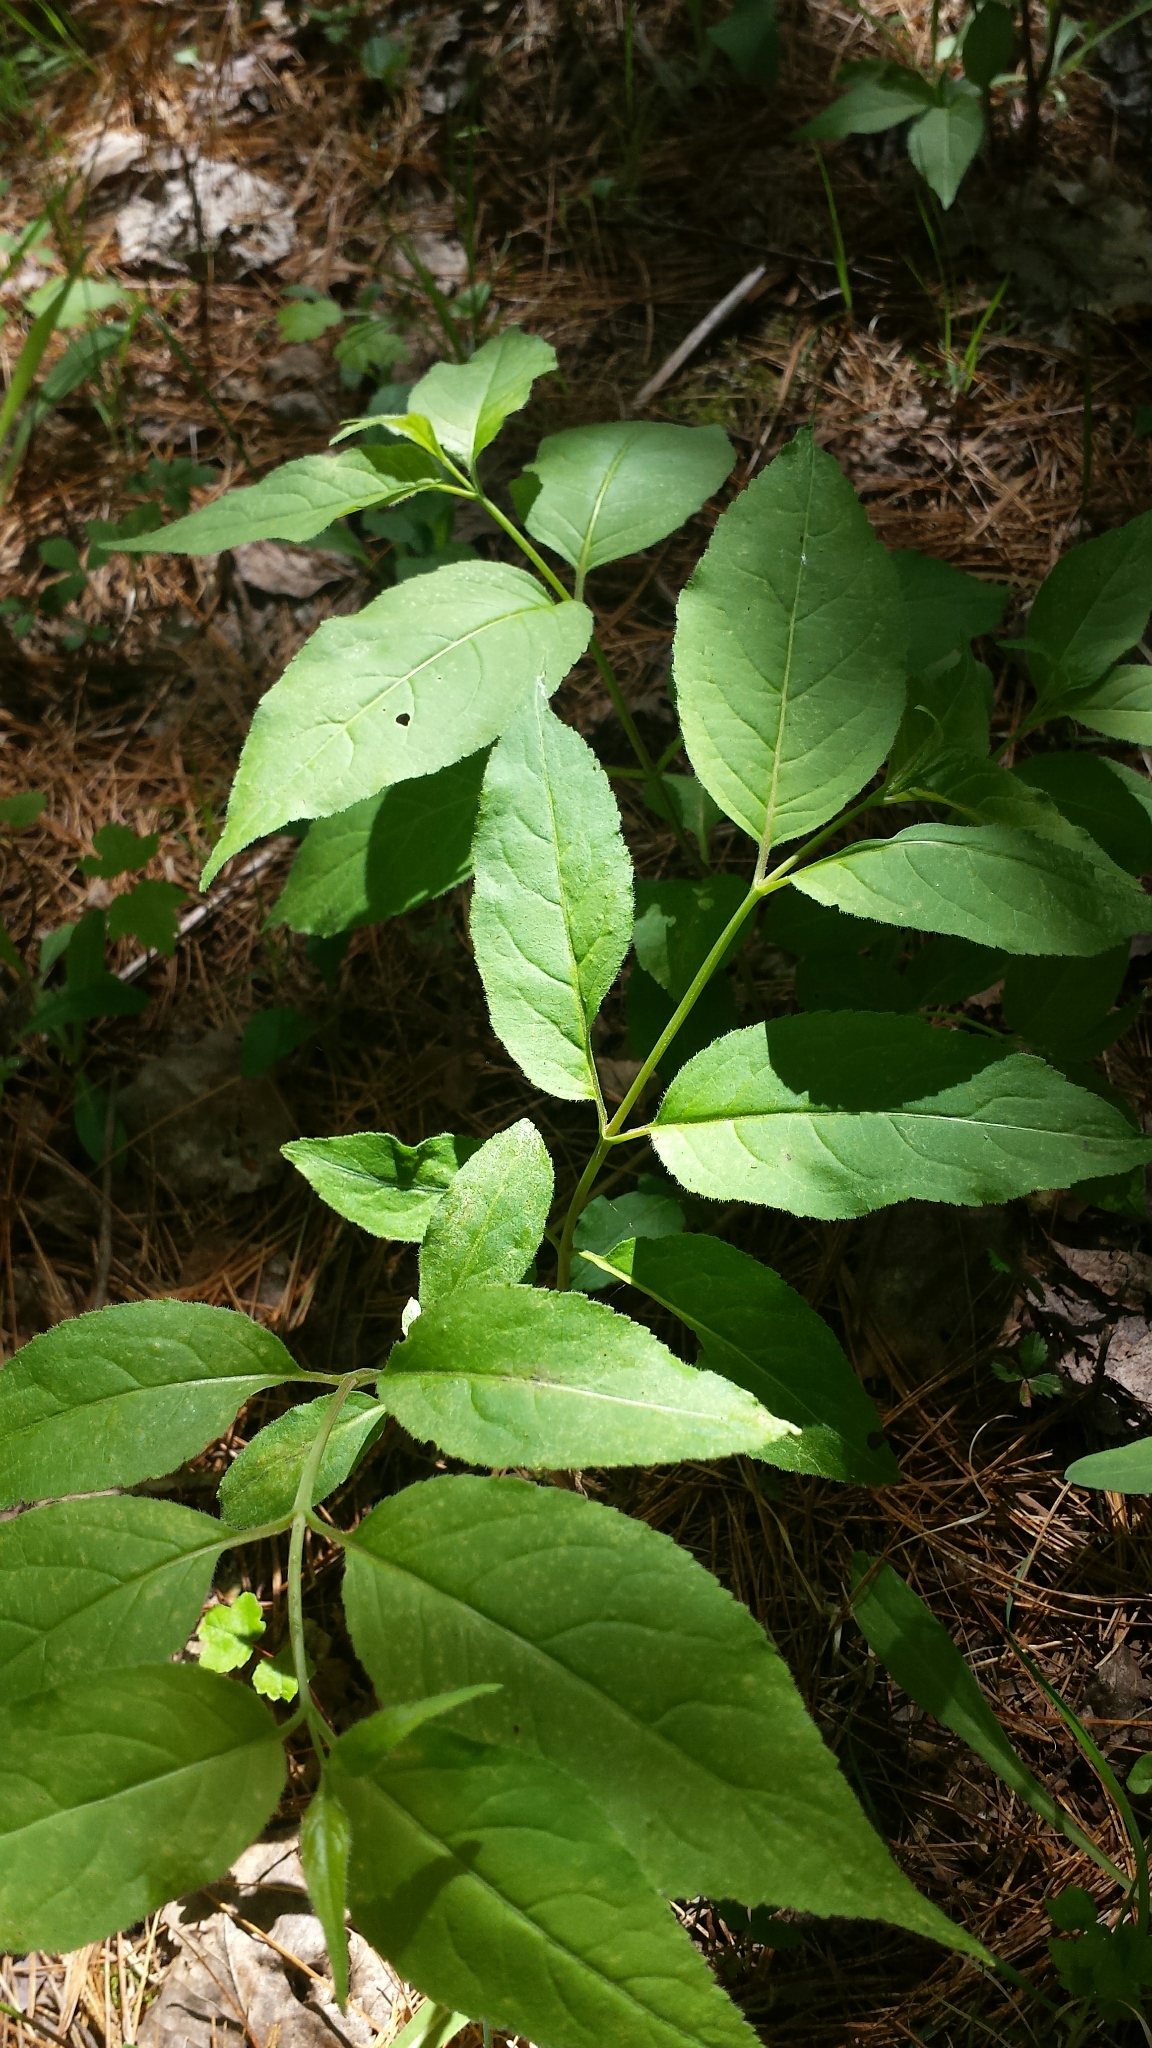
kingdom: Plantae
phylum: Tracheophyta
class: Magnoliopsida
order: Dipsacales
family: Caprifoliaceae
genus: Diervilla
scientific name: Diervilla lonicera
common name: Bush-honeysuckle
